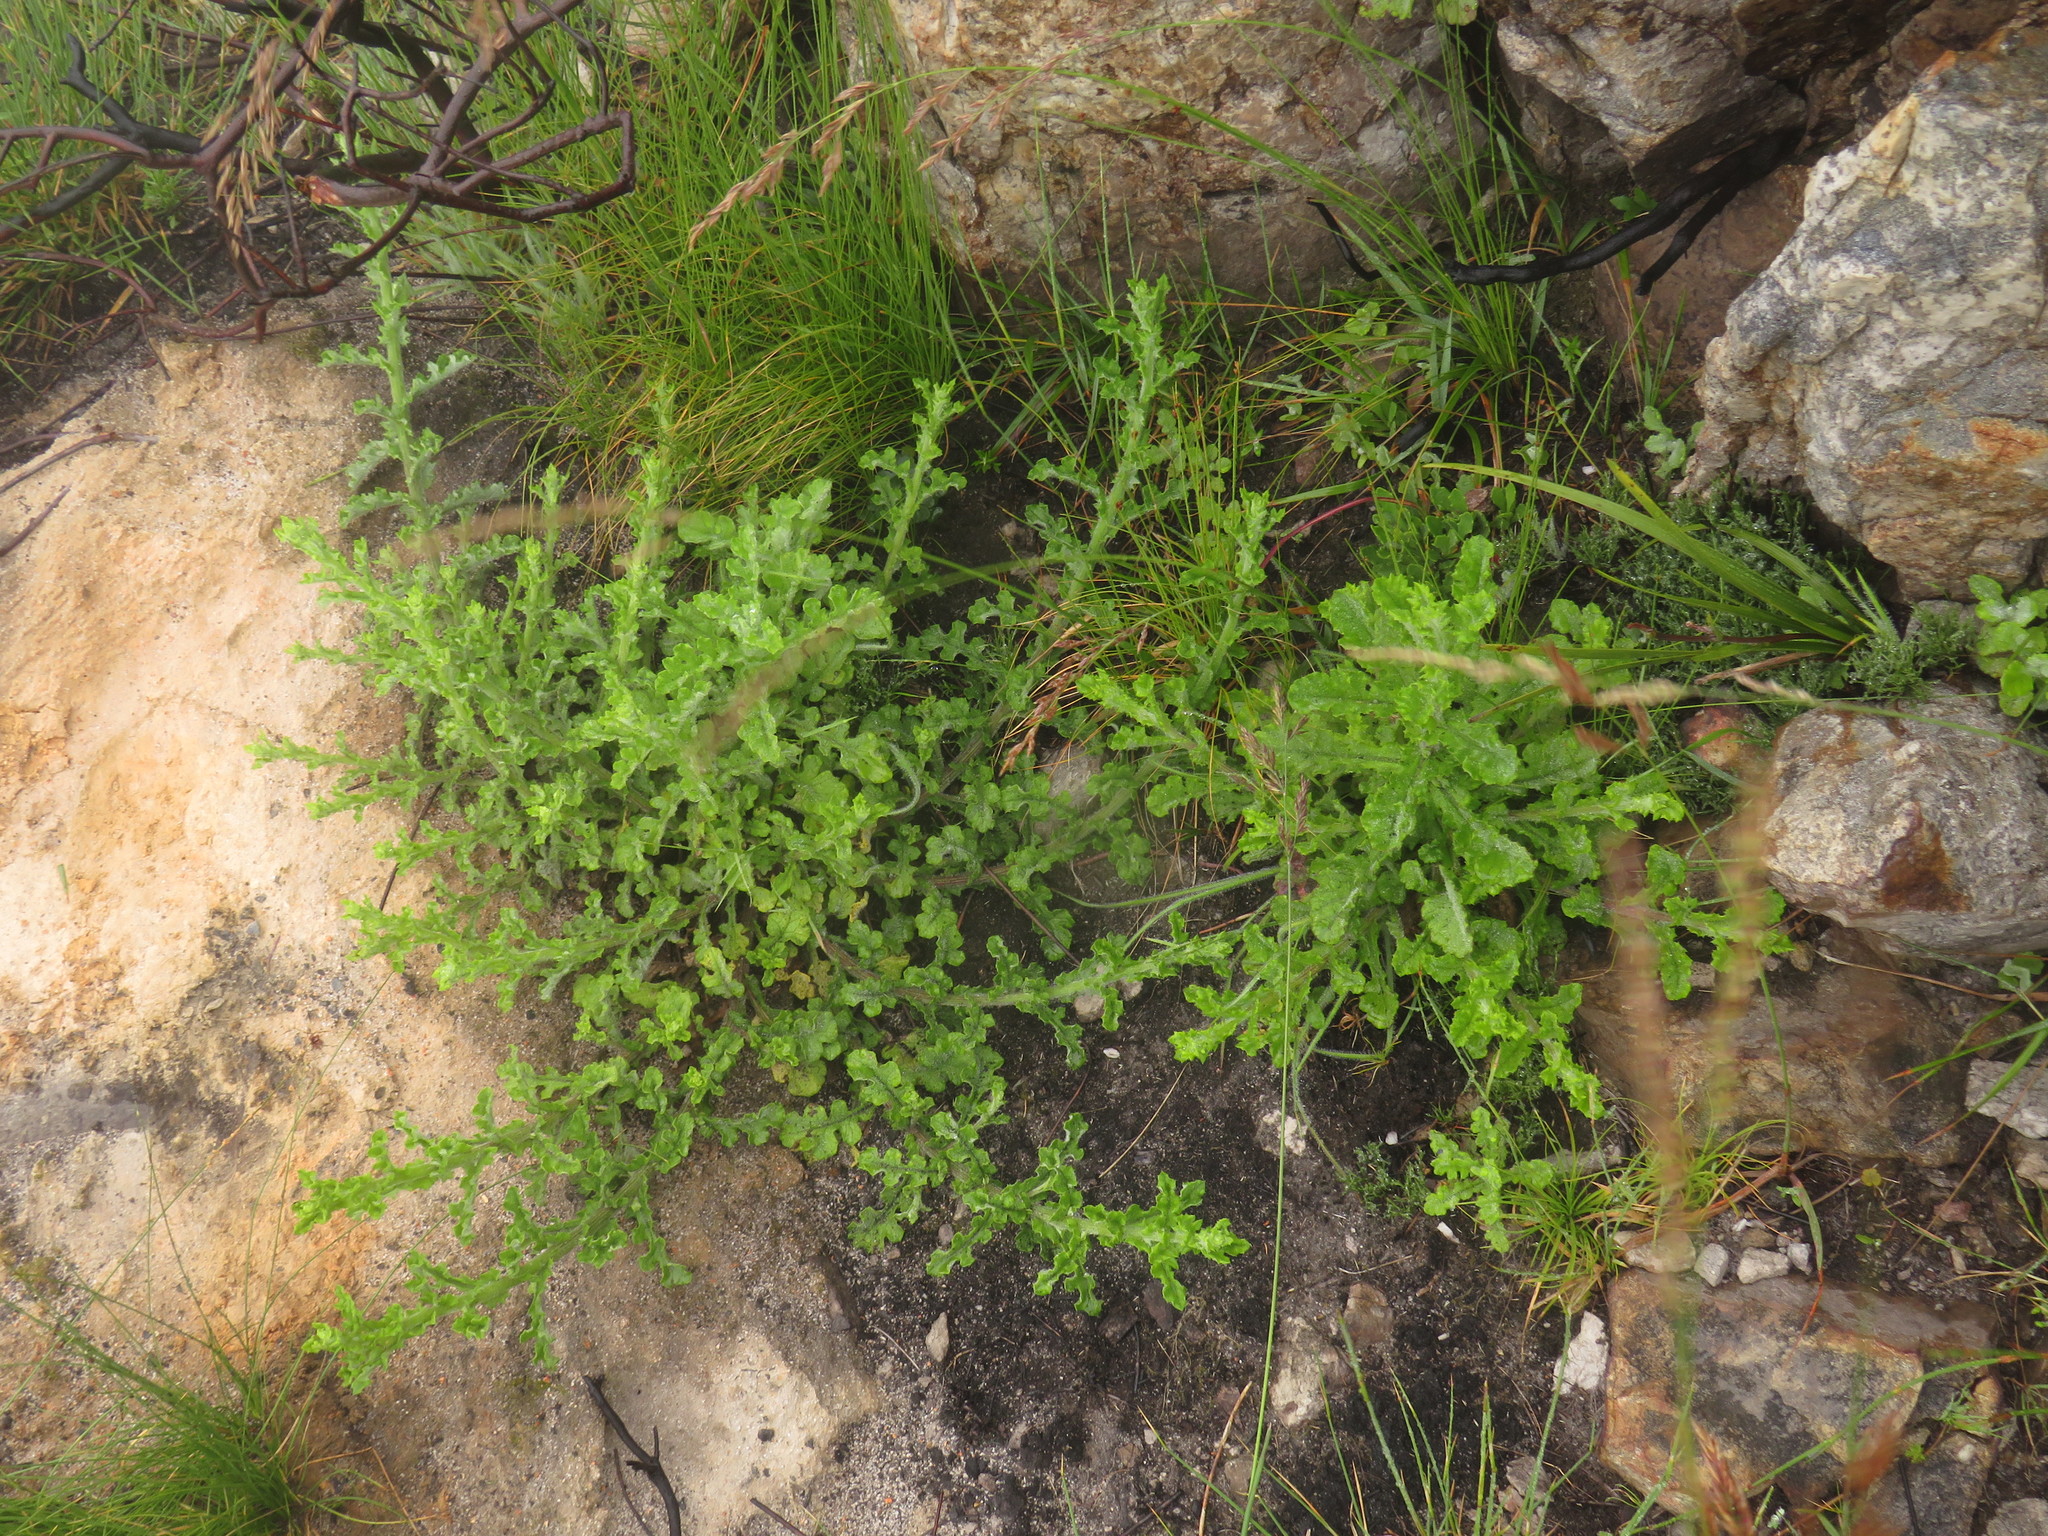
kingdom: Plantae
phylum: Tracheophyta
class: Magnoliopsida
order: Asterales
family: Asteraceae
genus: Senecio
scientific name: Senecio pubigerus
